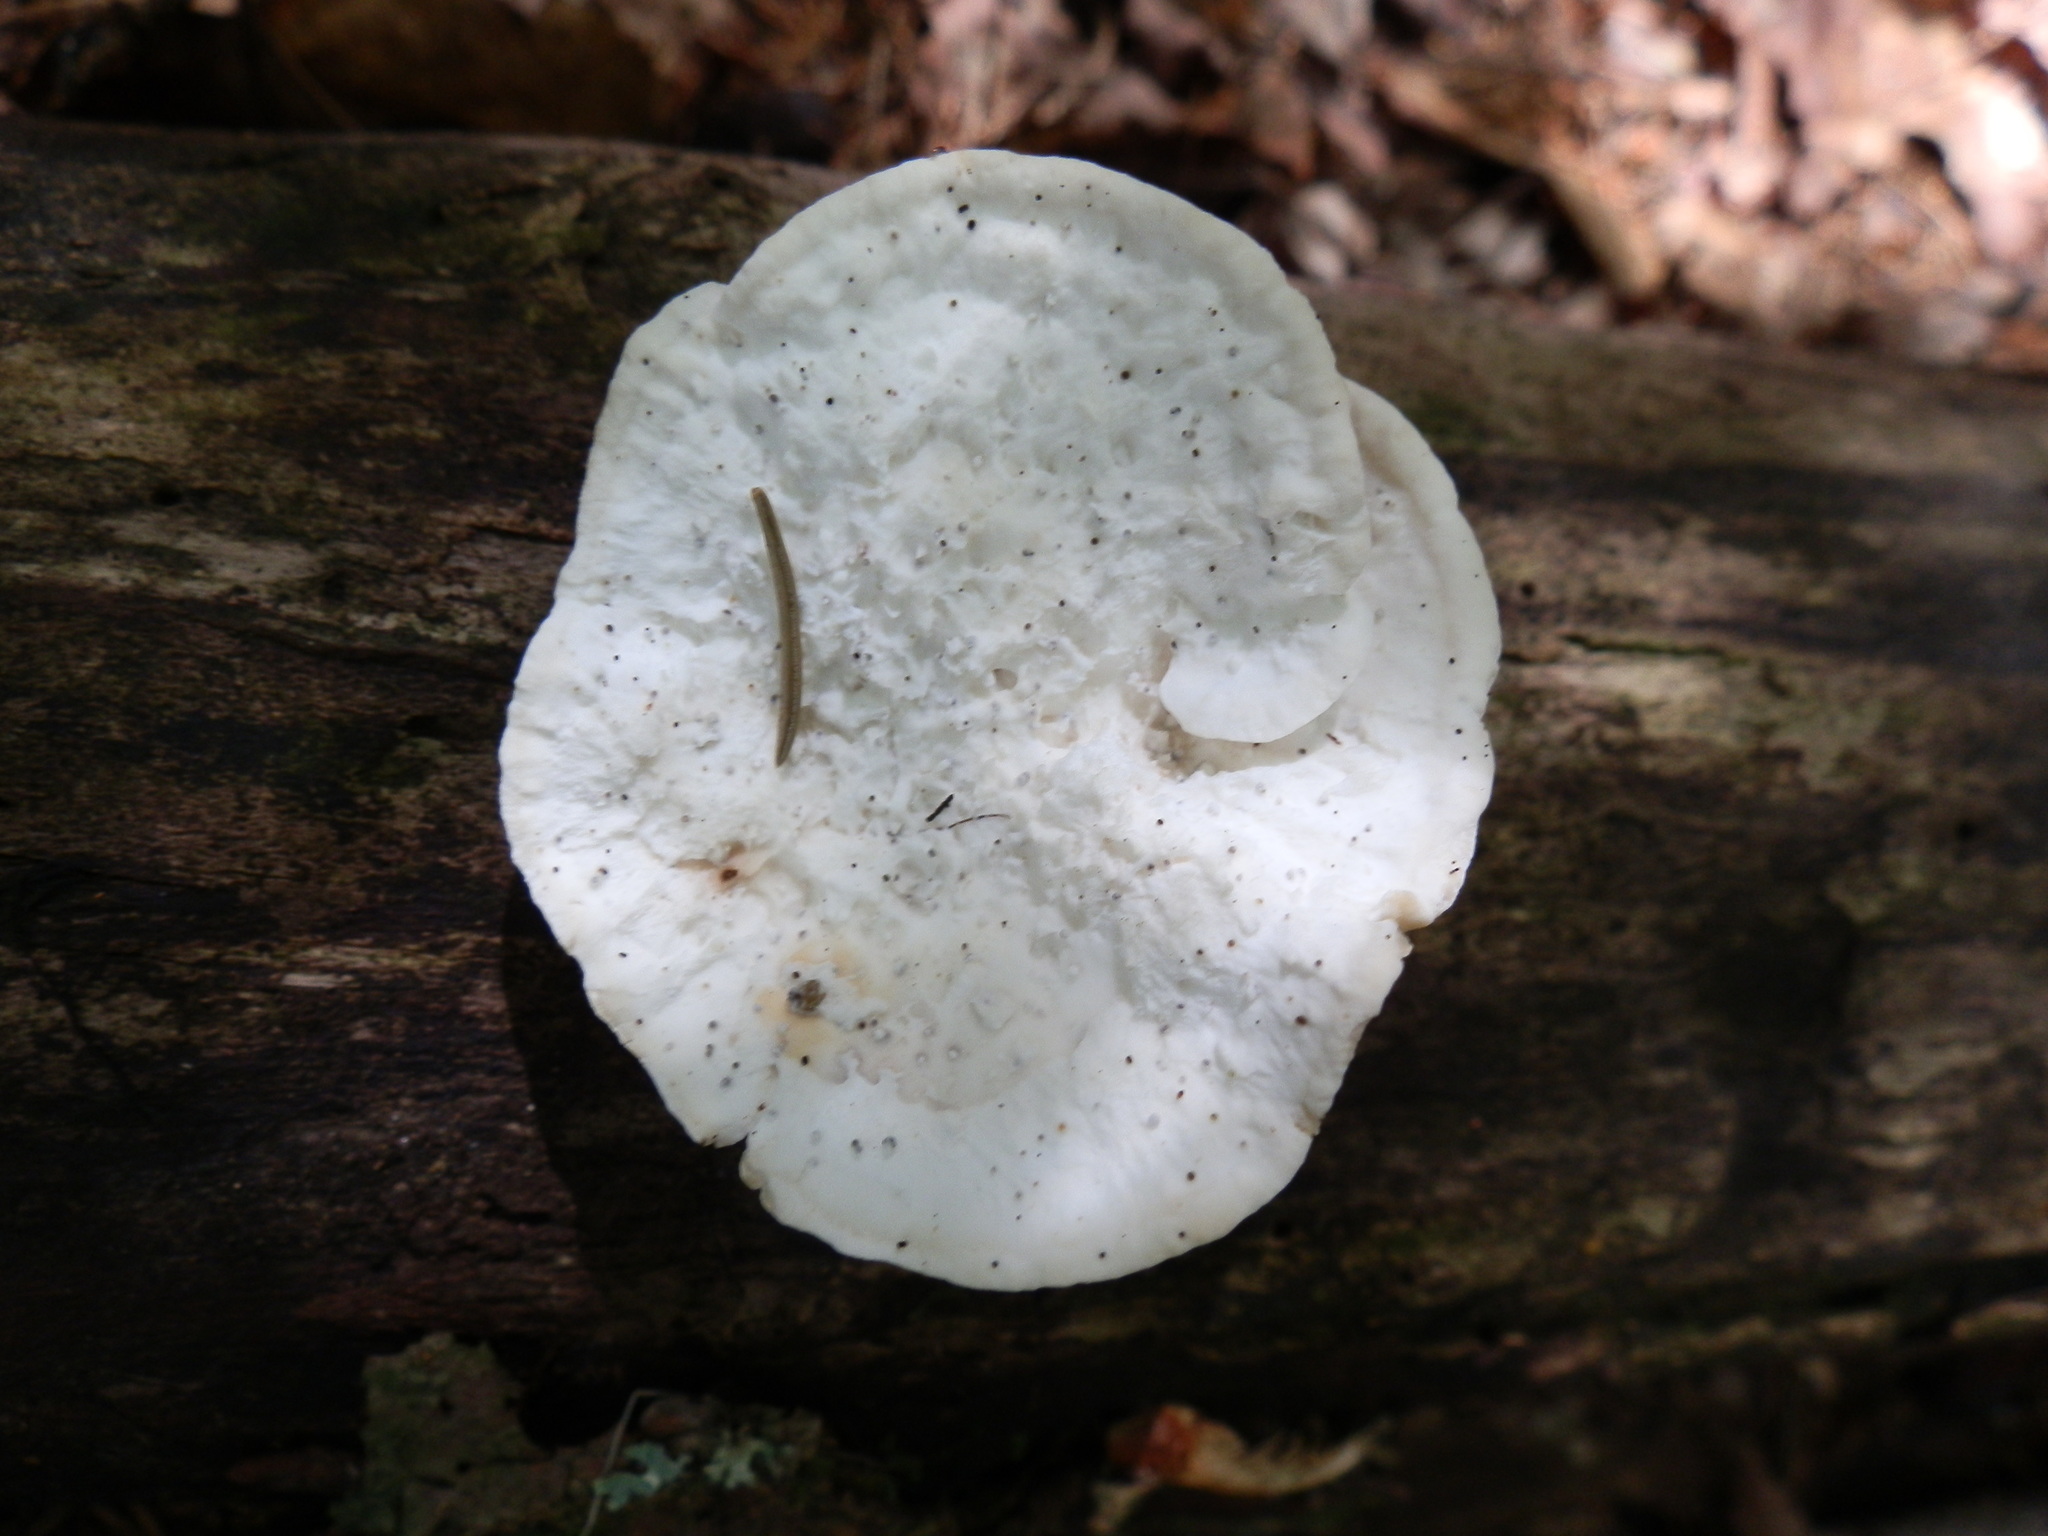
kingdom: Fungi
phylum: Basidiomycota
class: Agaricomycetes
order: Polyporales
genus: Amaropostia
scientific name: Amaropostia stiptica
